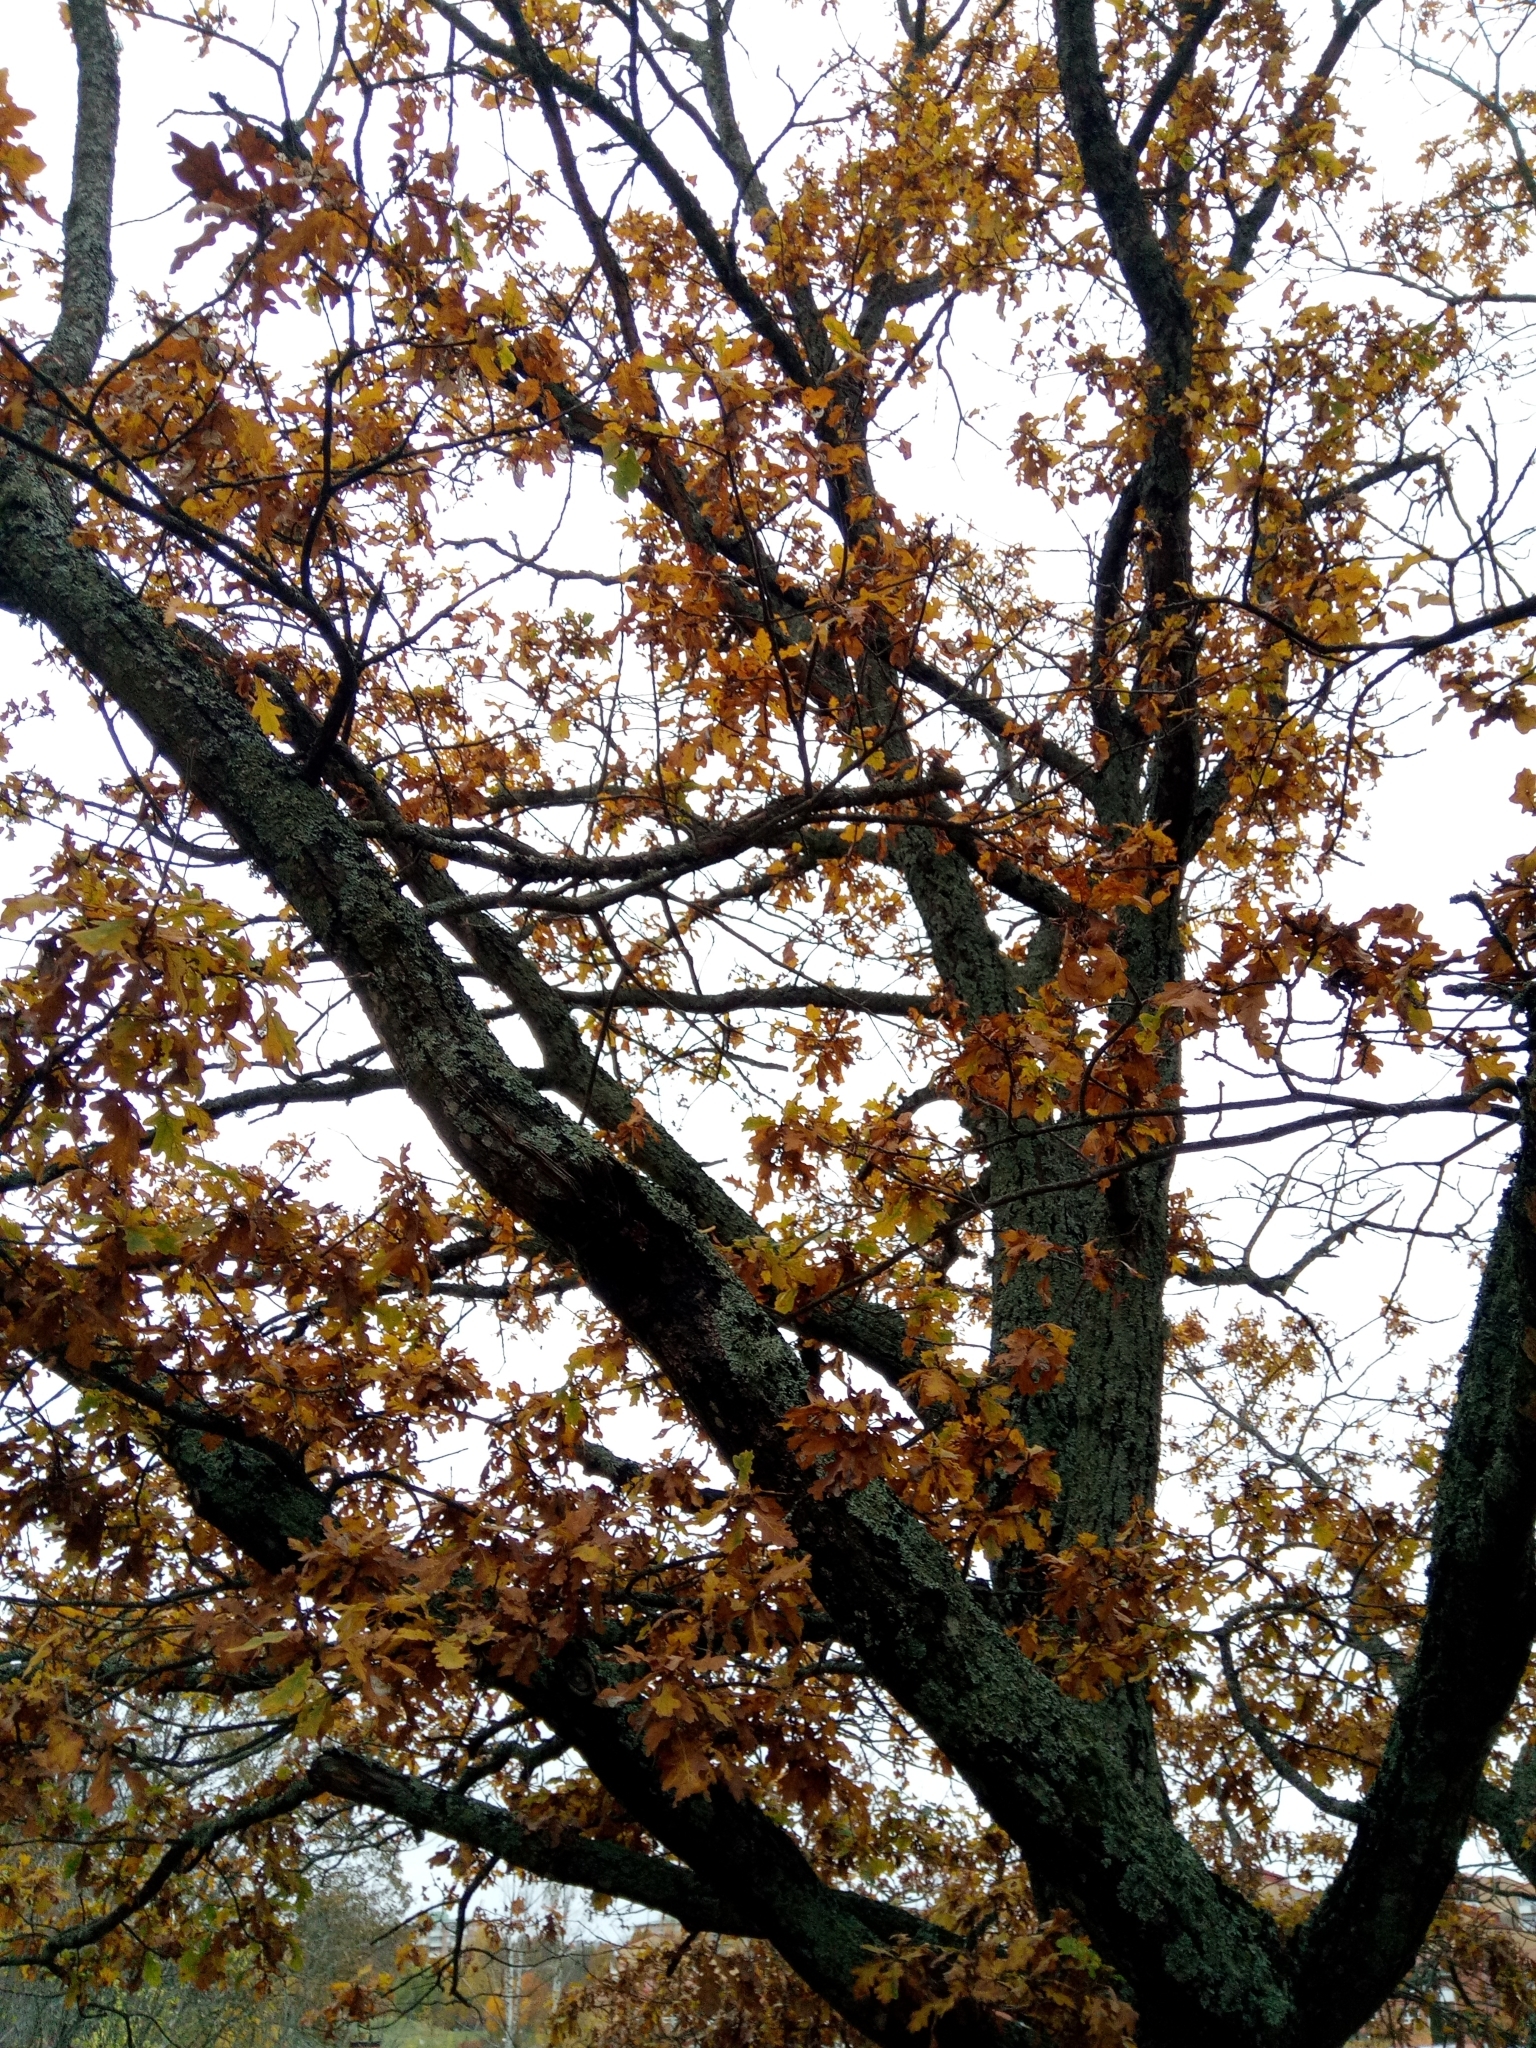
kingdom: Plantae
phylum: Tracheophyta
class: Magnoliopsida
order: Fagales
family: Fagaceae
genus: Quercus
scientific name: Quercus robur
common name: Pedunculate oak
